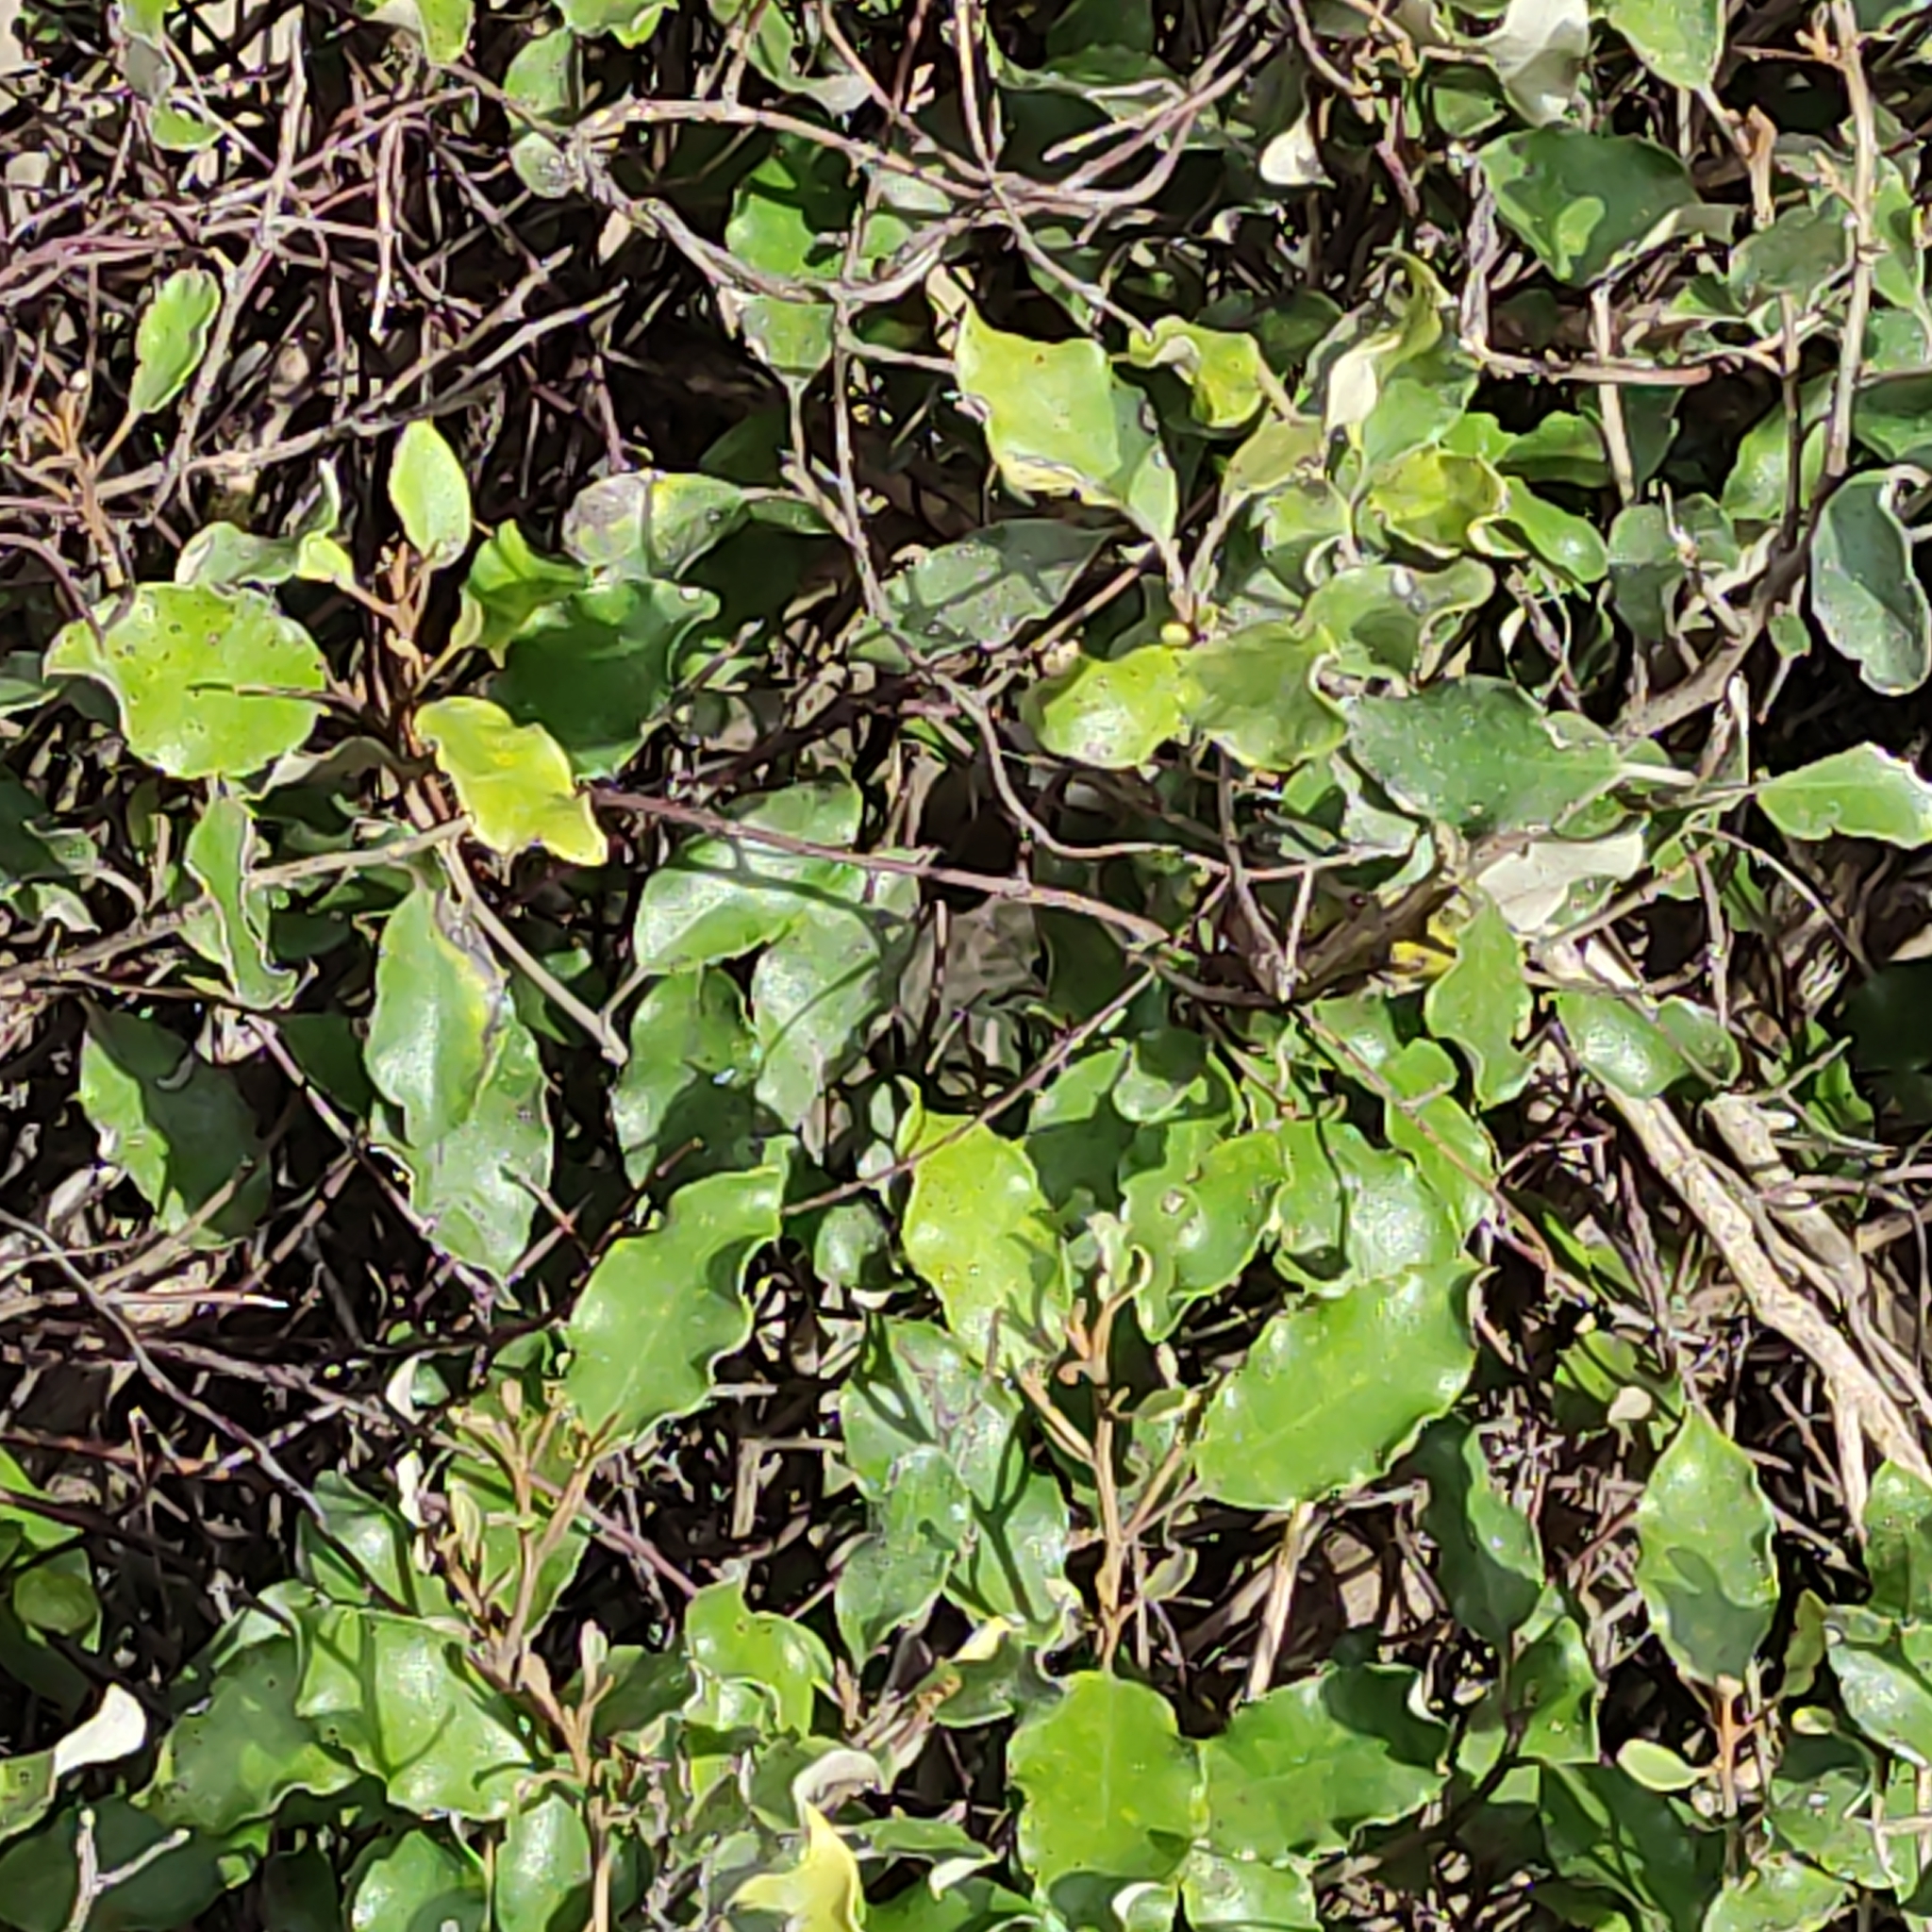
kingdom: Plantae
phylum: Tracheophyta
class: Magnoliopsida
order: Asterales
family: Asteraceae
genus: Olearia
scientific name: Olearia paniculata
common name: Akiraho
